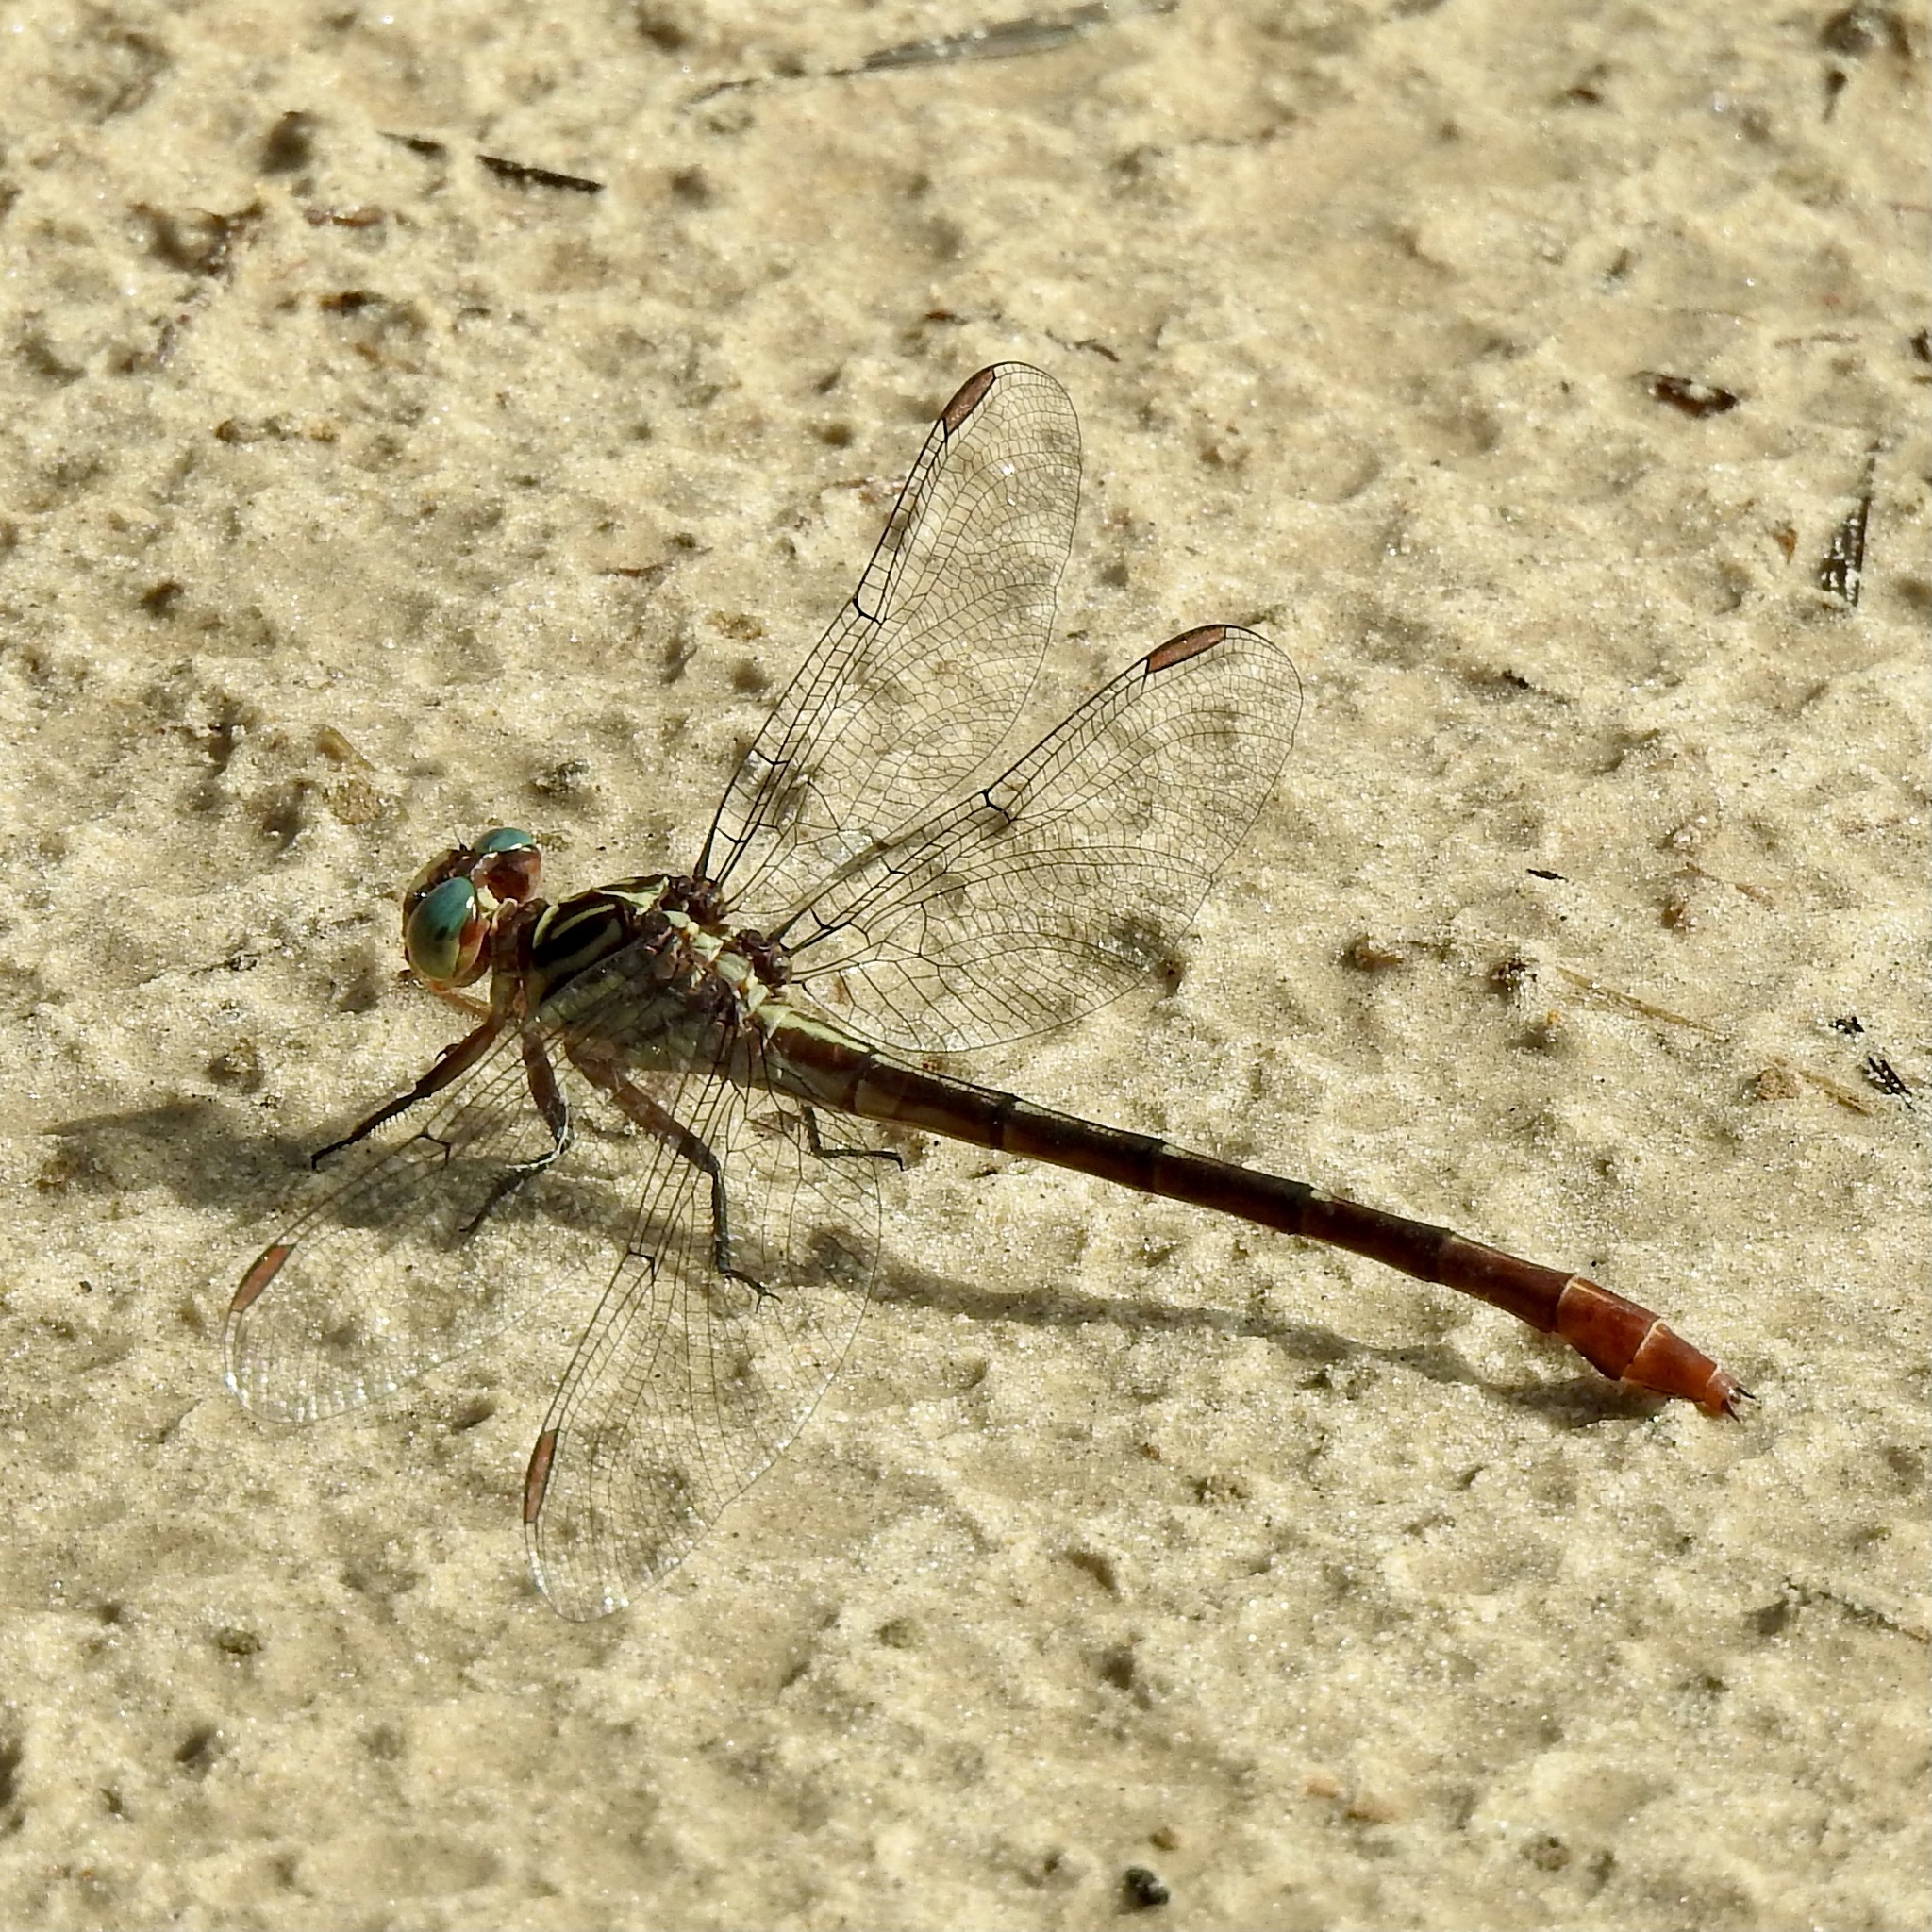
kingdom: Animalia
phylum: Arthropoda
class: Insecta
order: Odonata
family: Gomphidae
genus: Stylurus
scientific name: Stylurus plagiatus
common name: Russet-tipped clubtail
